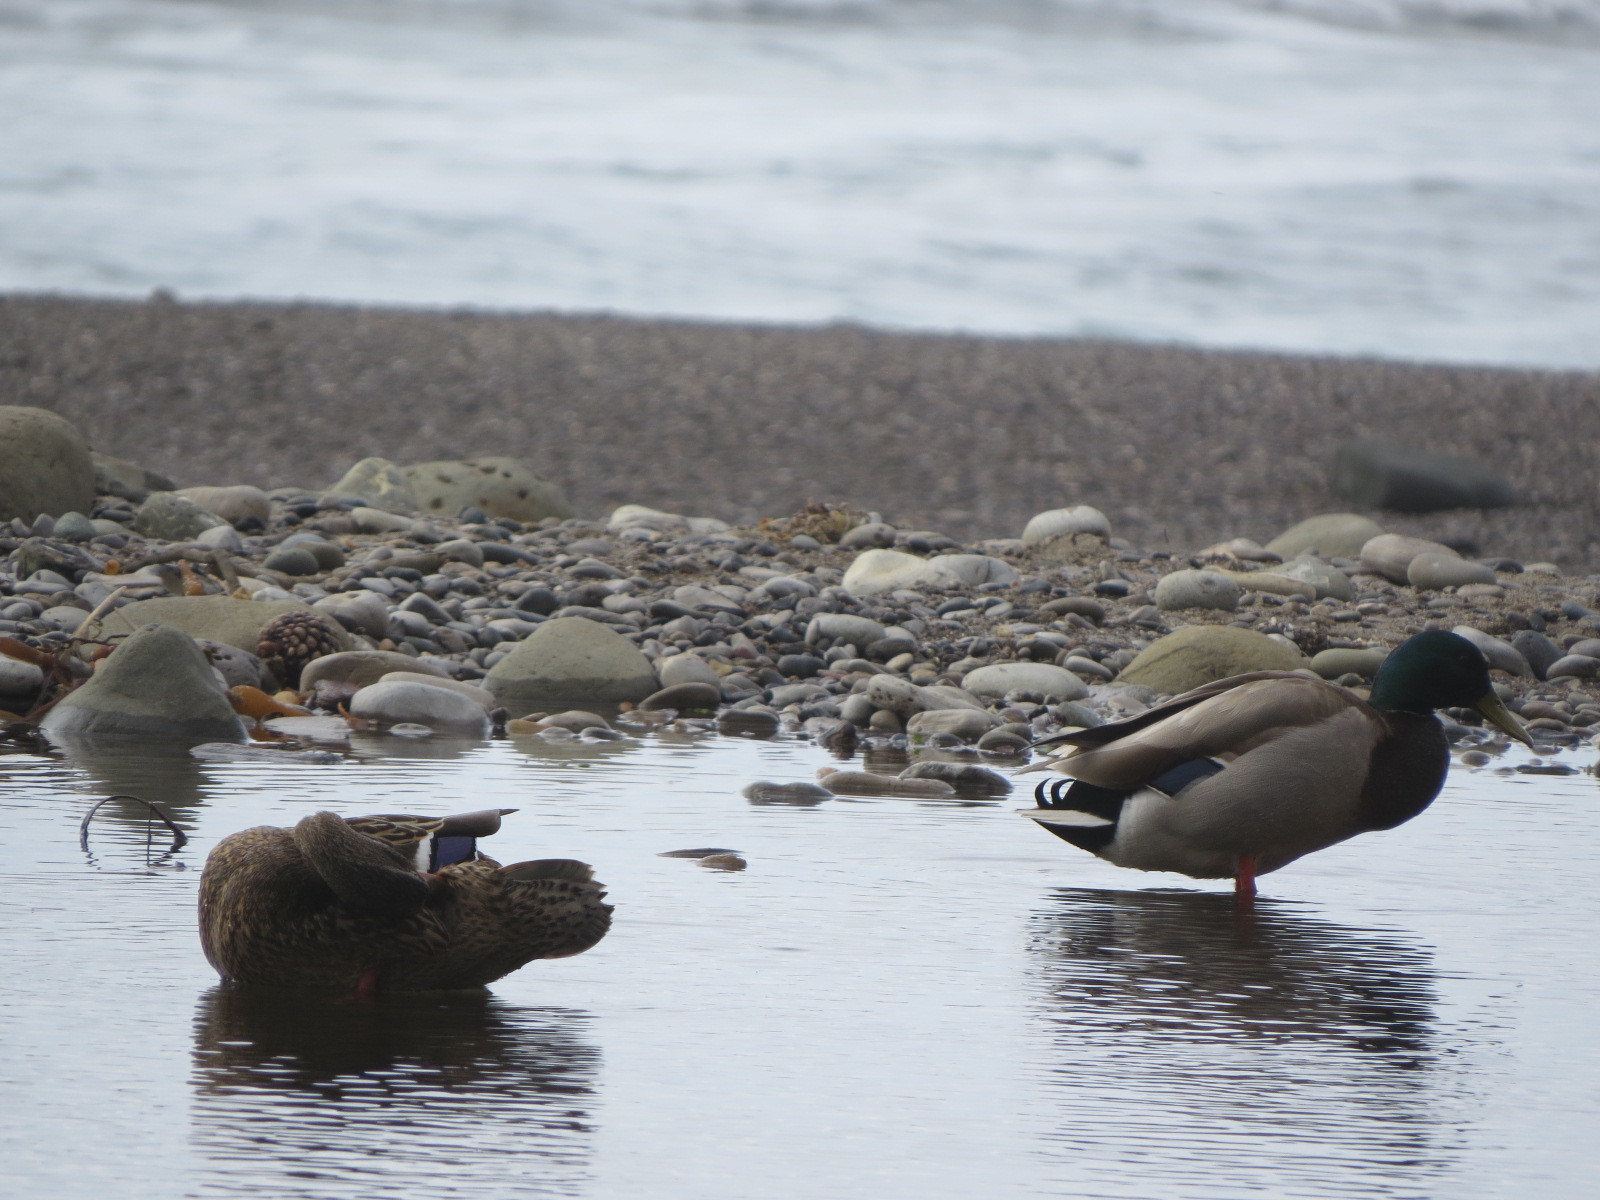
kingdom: Animalia
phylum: Chordata
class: Aves
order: Anseriformes
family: Anatidae
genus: Anas
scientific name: Anas platyrhynchos
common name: Mallard
